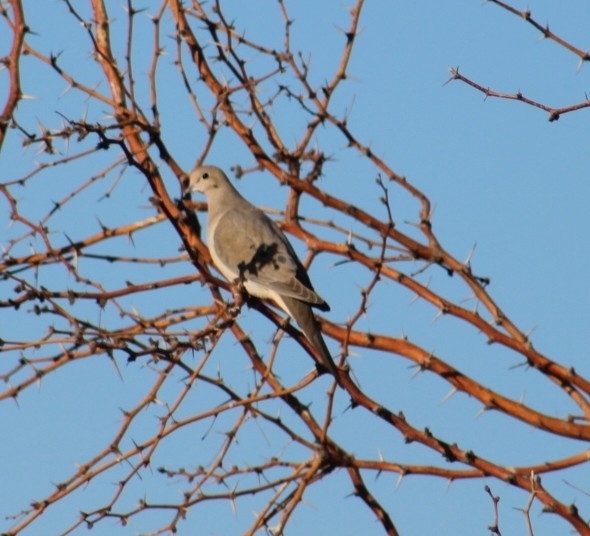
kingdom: Animalia
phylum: Chordata
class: Aves
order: Columbiformes
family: Columbidae
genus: Zenaida
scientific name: Zenaida macroura
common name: Mourning dove
